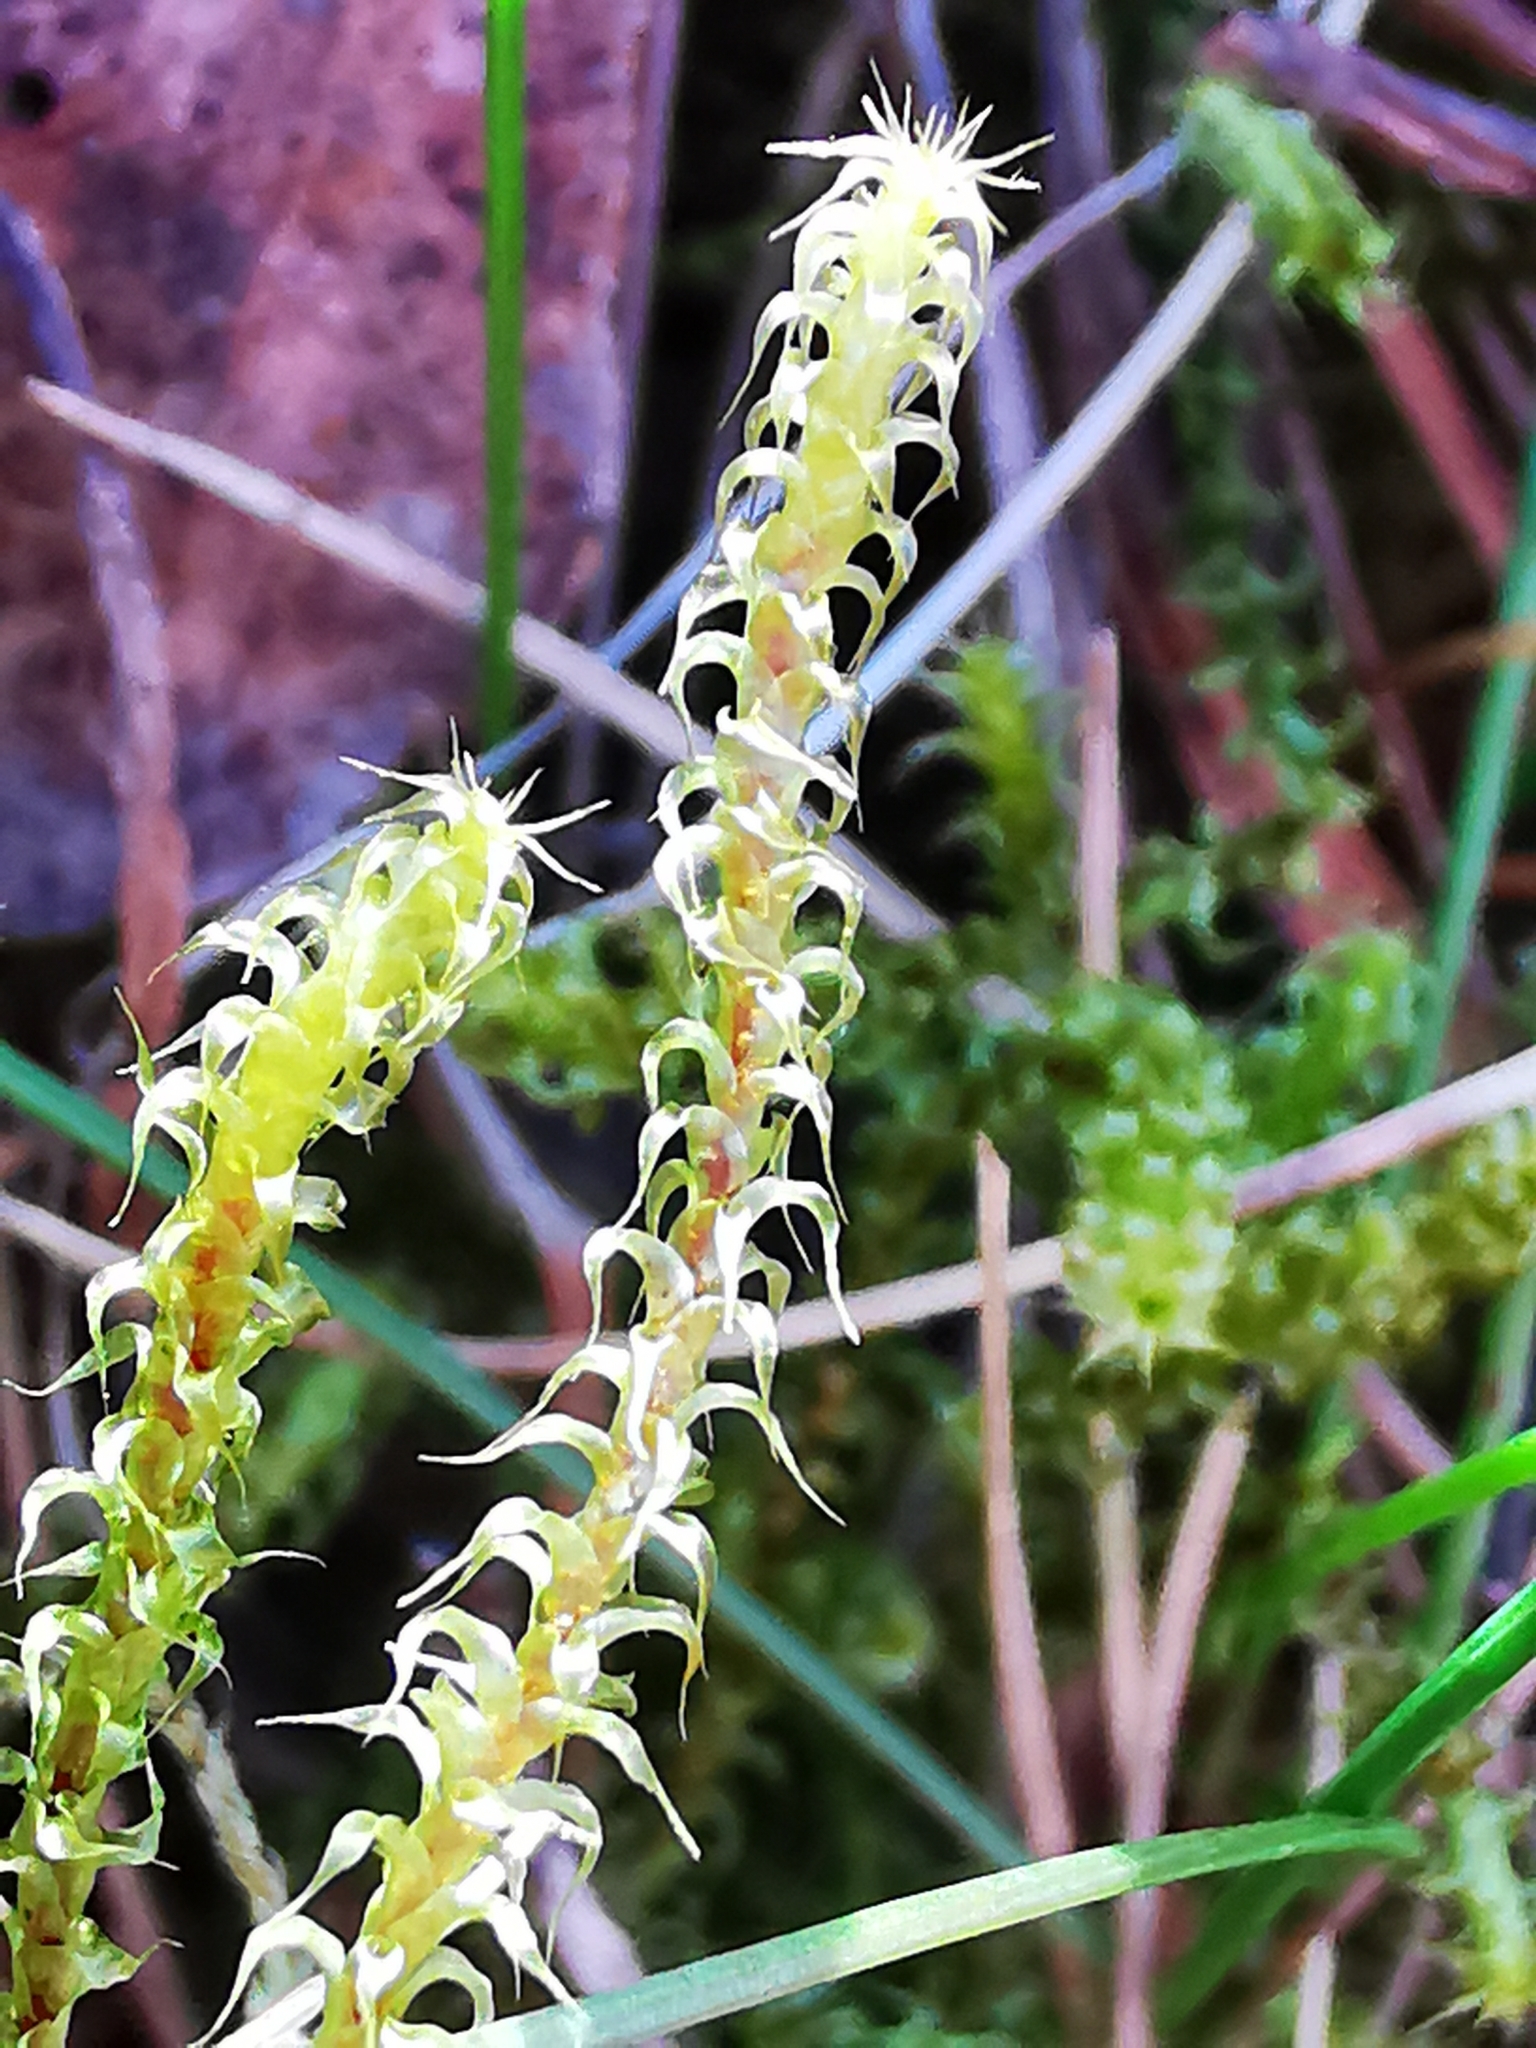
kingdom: Plantae
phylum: Bryophyta
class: Bryopsida
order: Hypnales
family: Hylocomiaceae
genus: Rhytidiadelphus
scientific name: Rhytidiadelphus squarrosus
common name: Springy turf-moss
